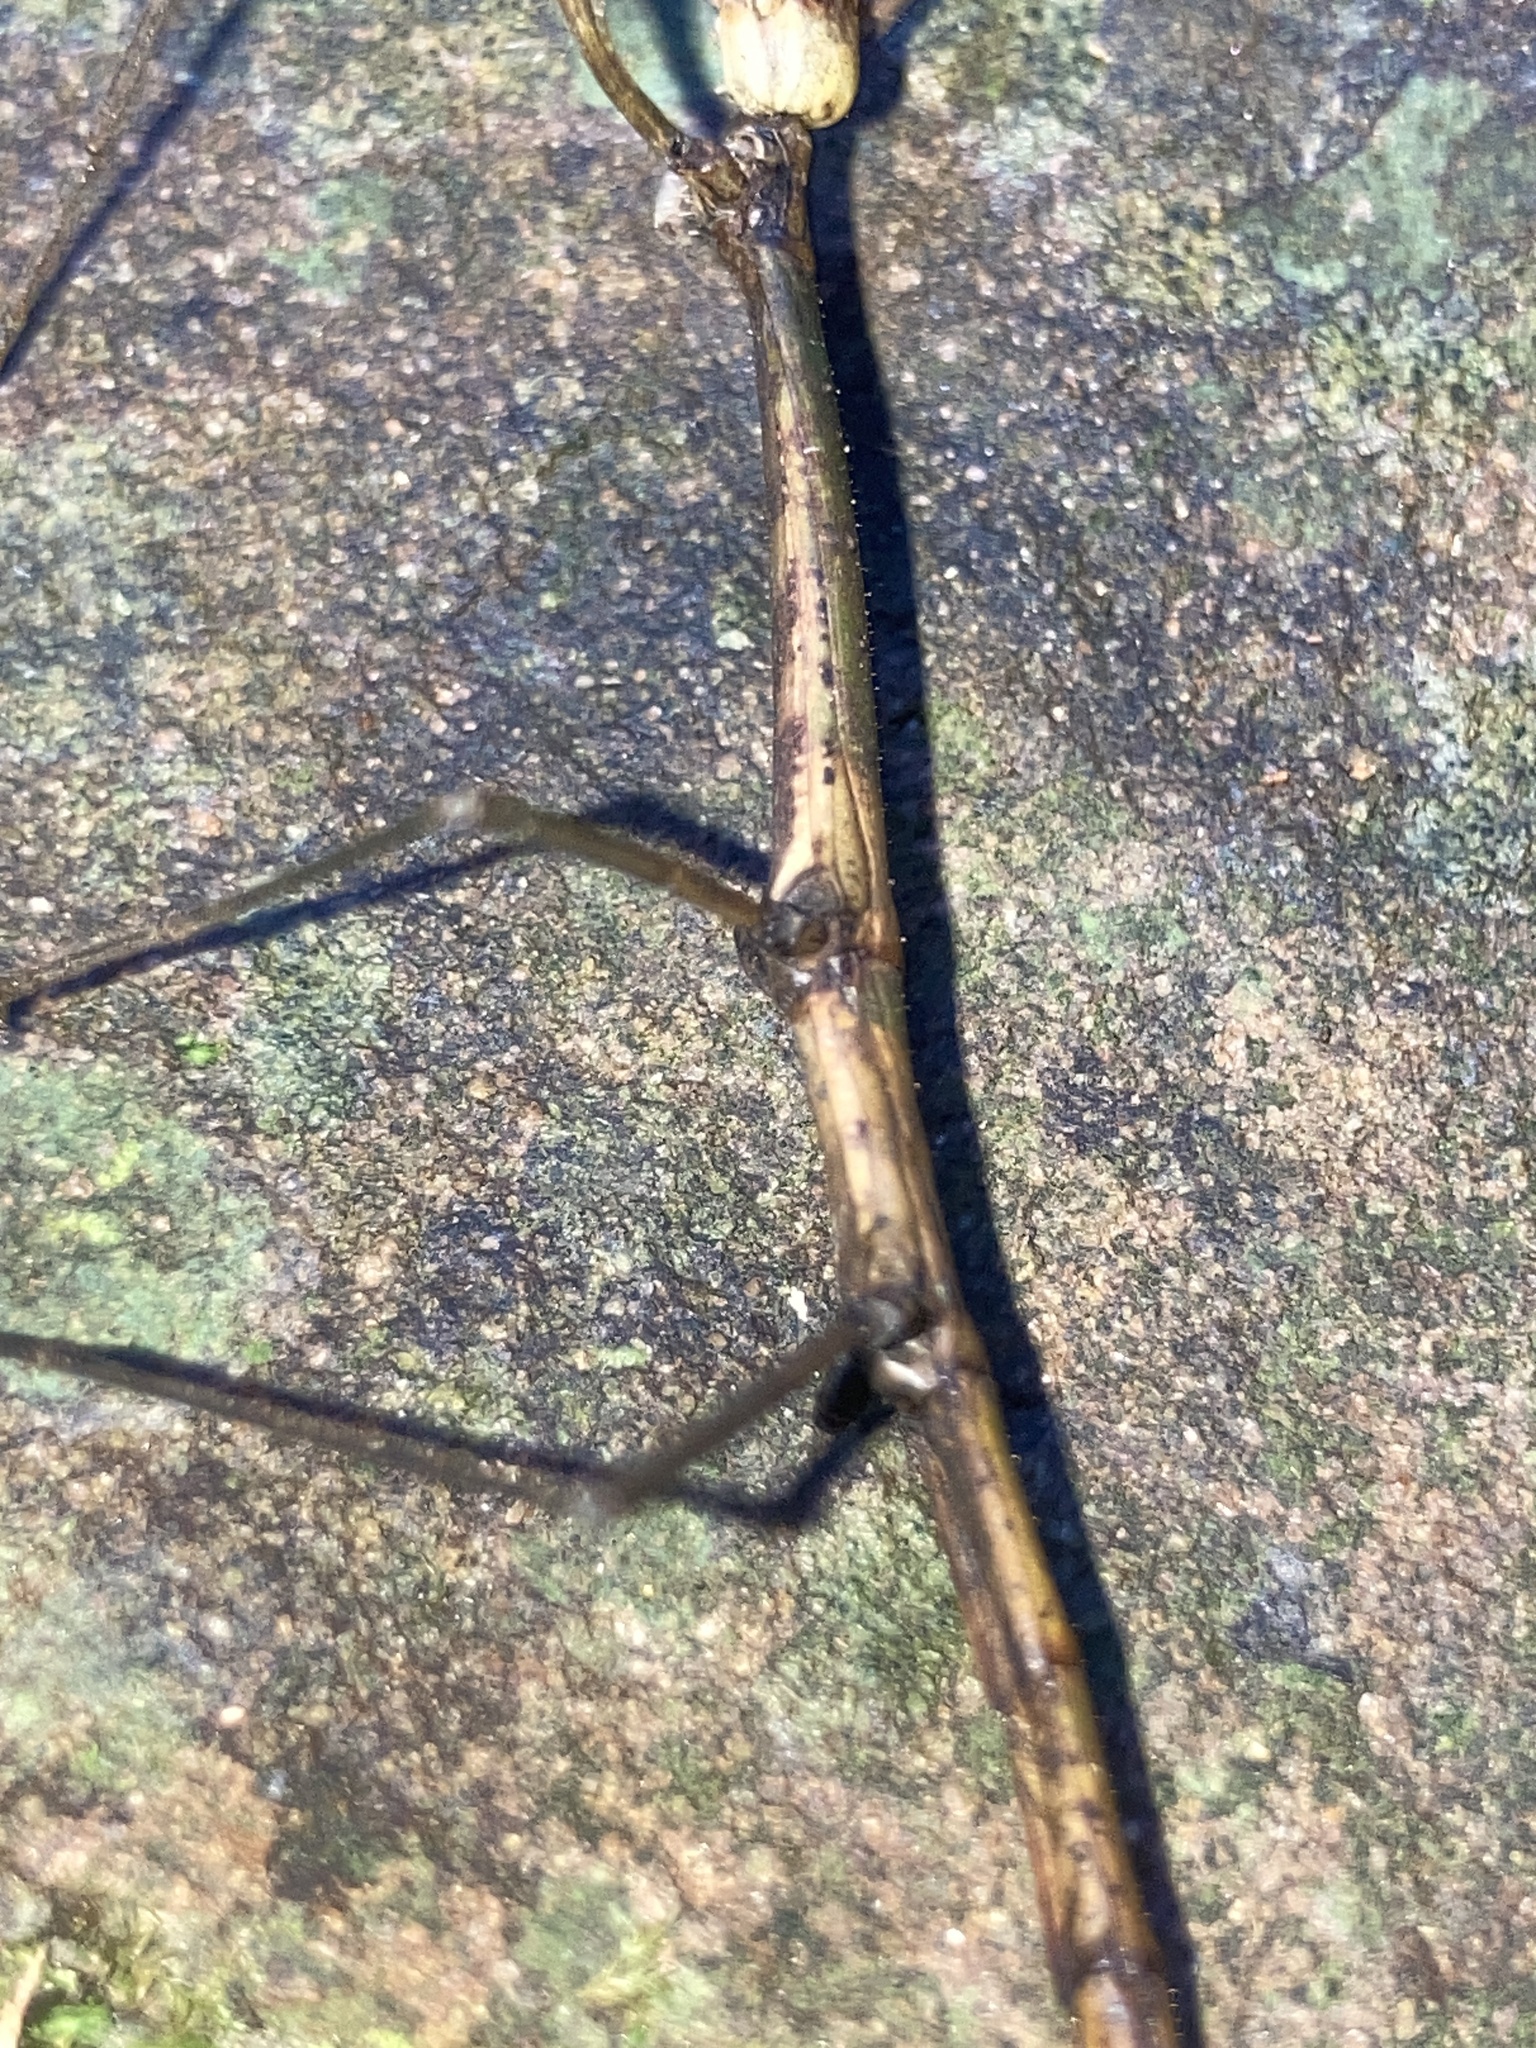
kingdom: Animalia
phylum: Arthropoda
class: Insecta
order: Phasmida
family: Lonchodidae
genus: Candovia
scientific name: Candovia strumosa
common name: Richmond river stick-insect
